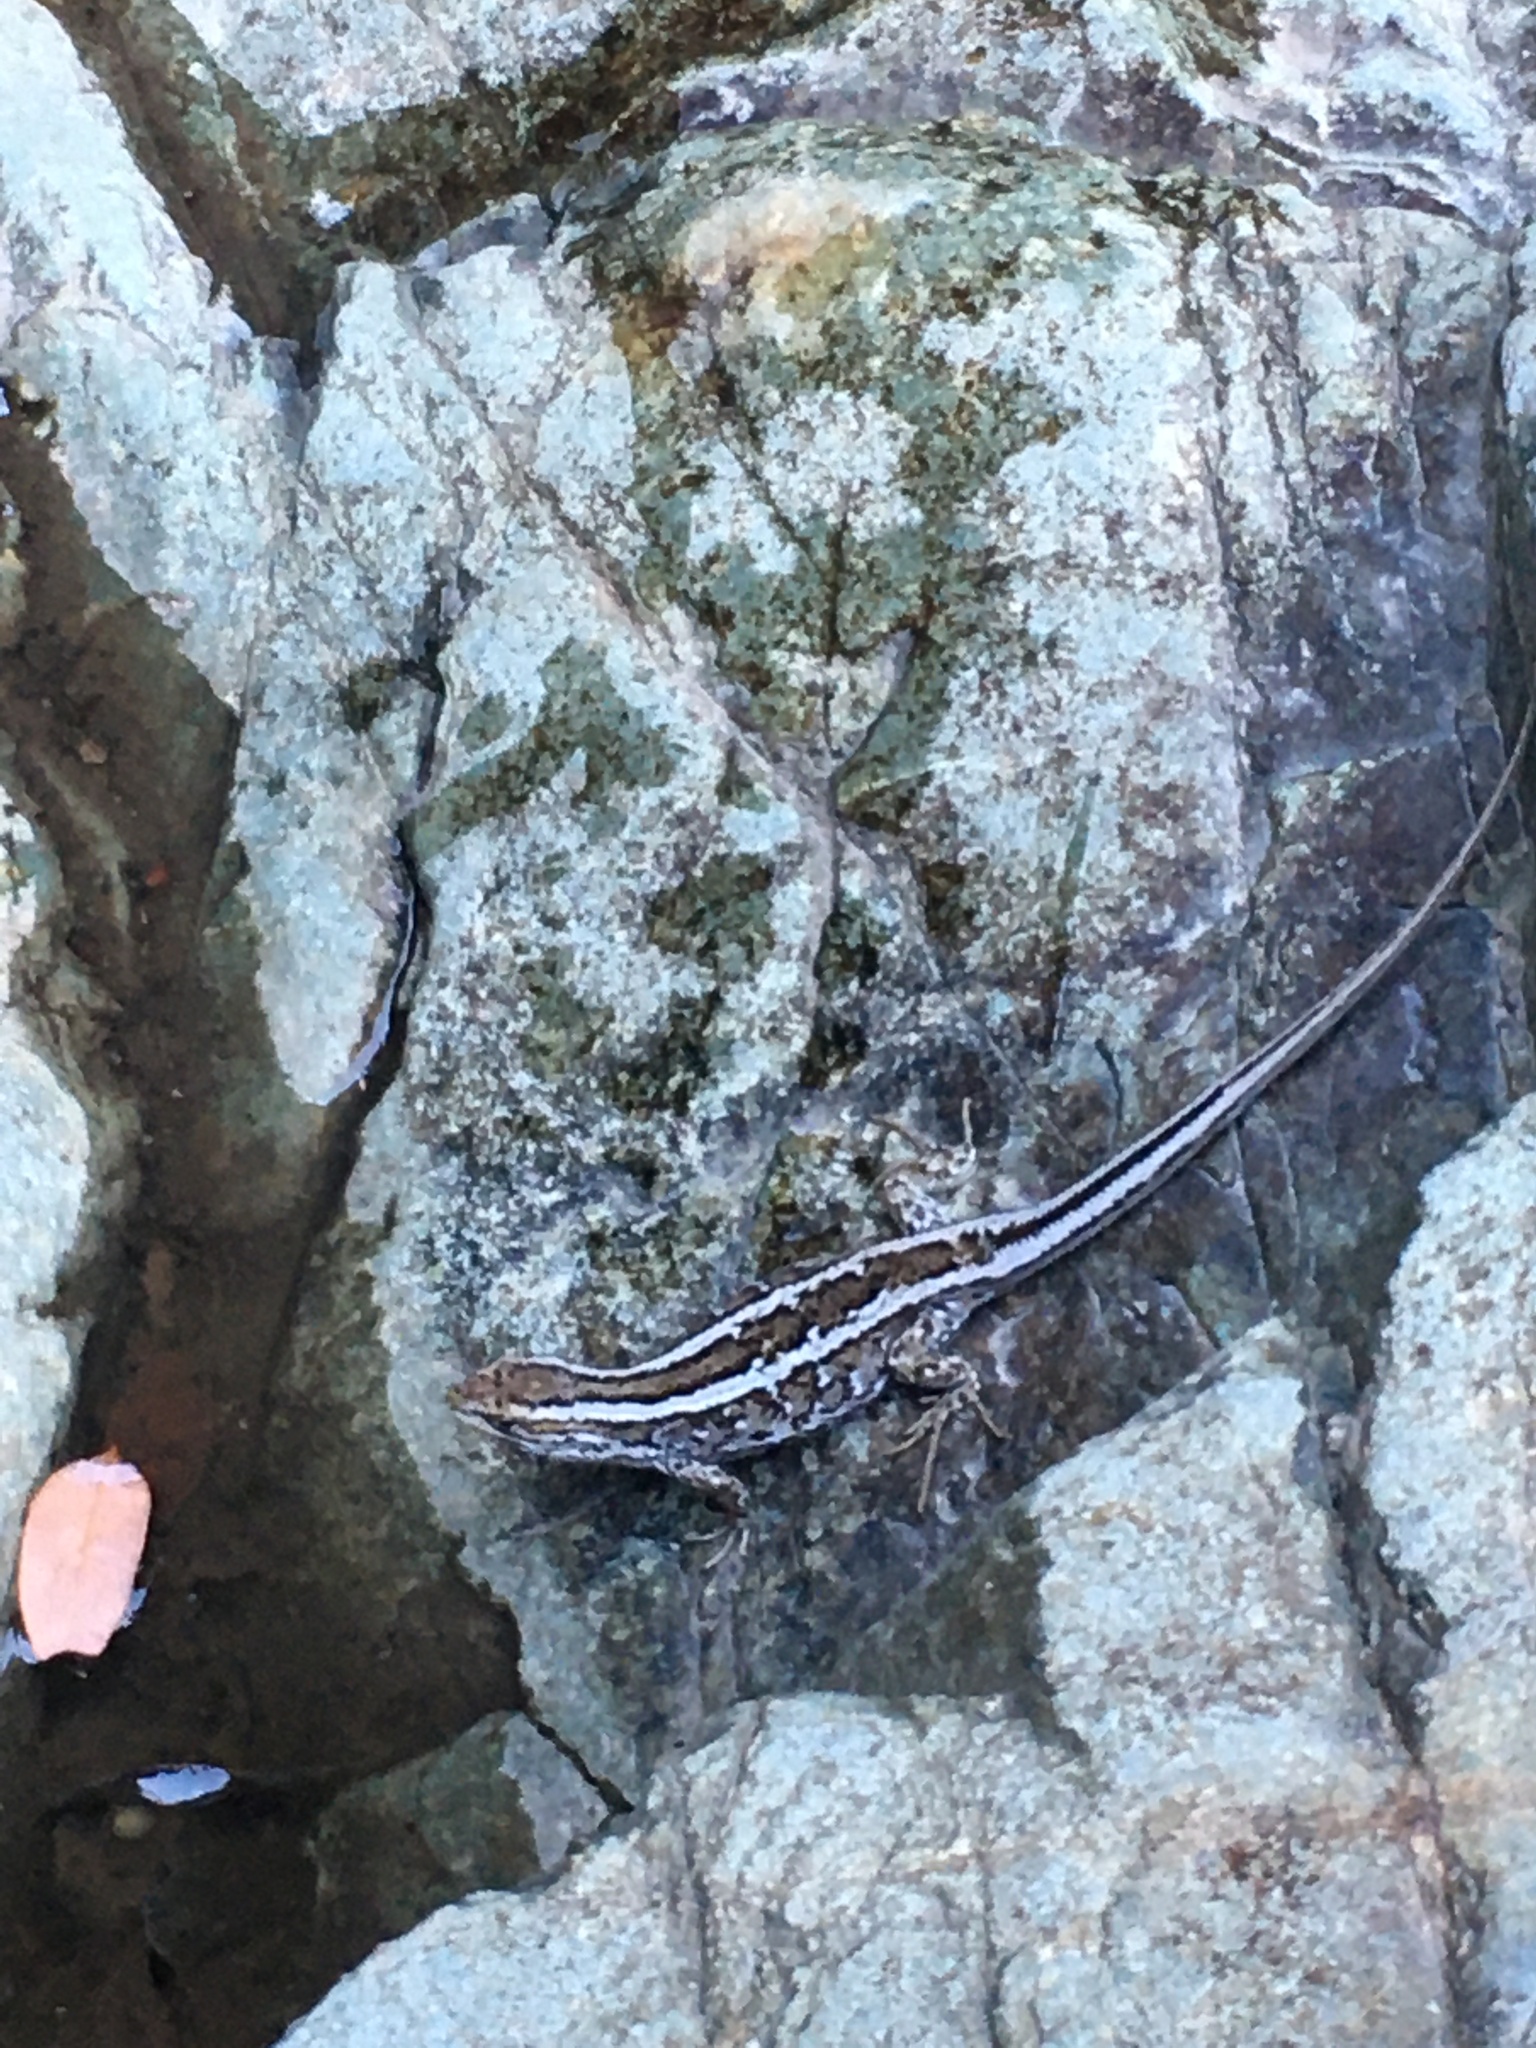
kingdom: Animalia
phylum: Chordata
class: Squamata
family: Liolaemidae
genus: Liolaemus
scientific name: Liolaemus schroederi
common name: Schroeder's tree iguana
